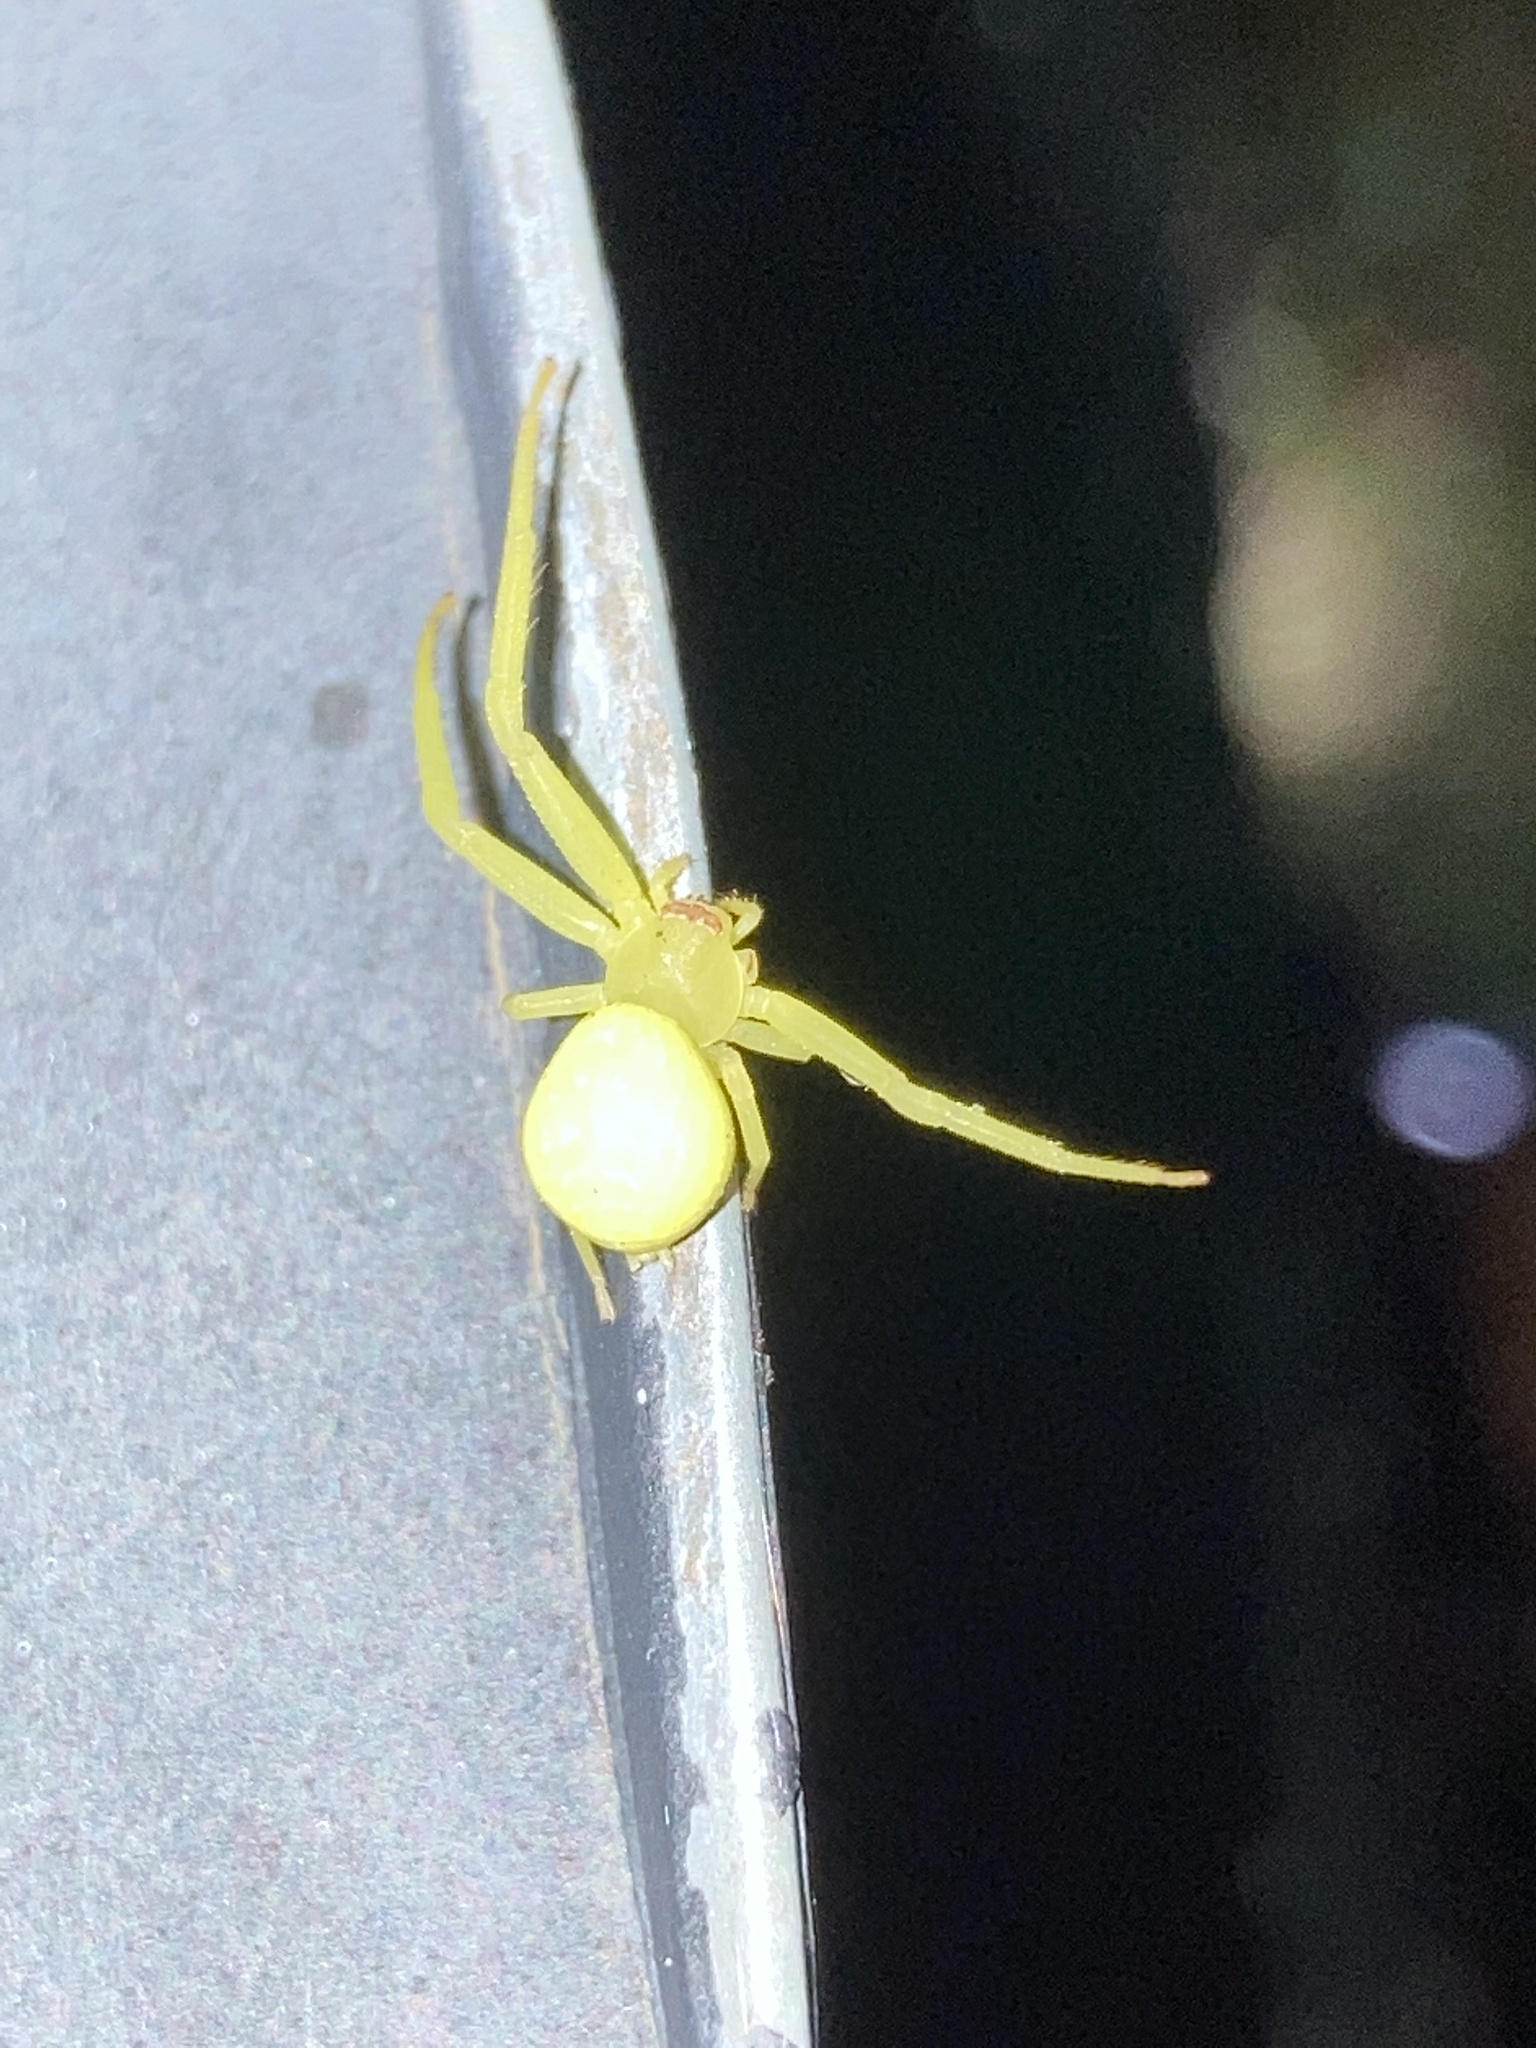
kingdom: Animalia
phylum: Arthropoda
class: Arachnida
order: Araneae
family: Thomisidae
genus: Misumessus
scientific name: Misumessus tamiami
